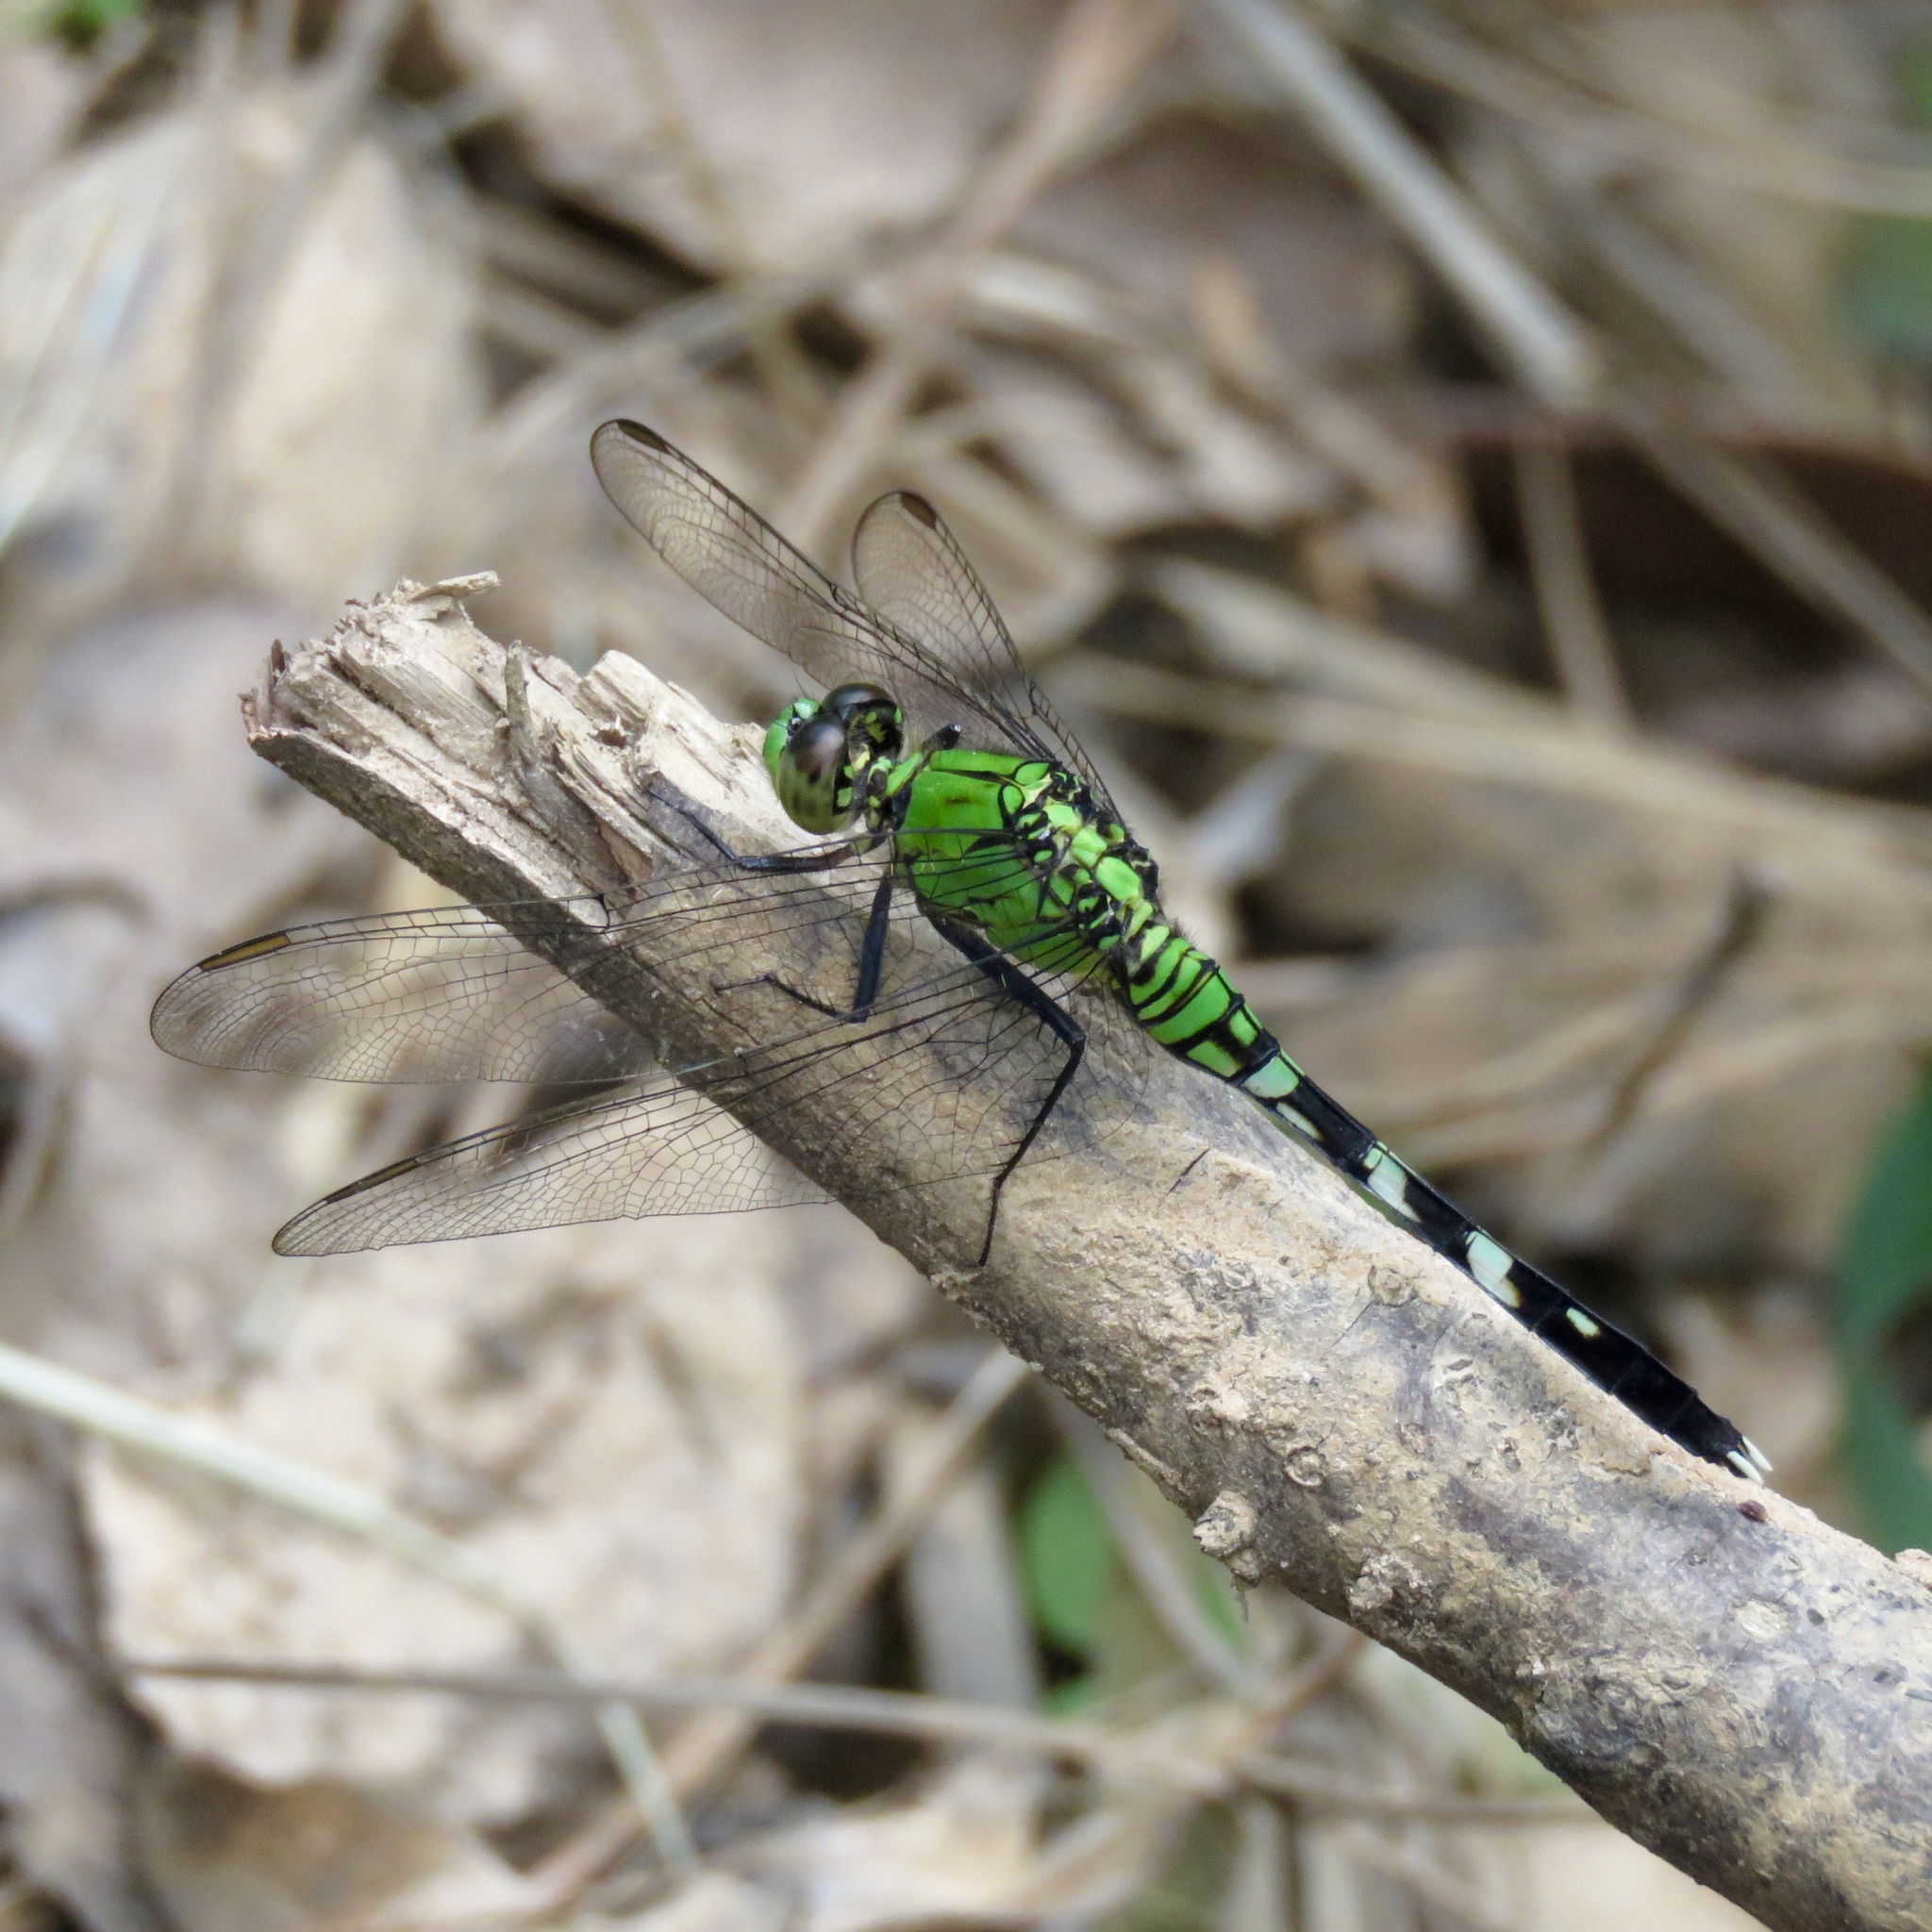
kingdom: Animalia
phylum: Arthropoda
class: Insecta
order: Odonata
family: Libellulidae
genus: Erythemis
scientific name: Erythemis simplicicollis
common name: Eastern pondhawk
